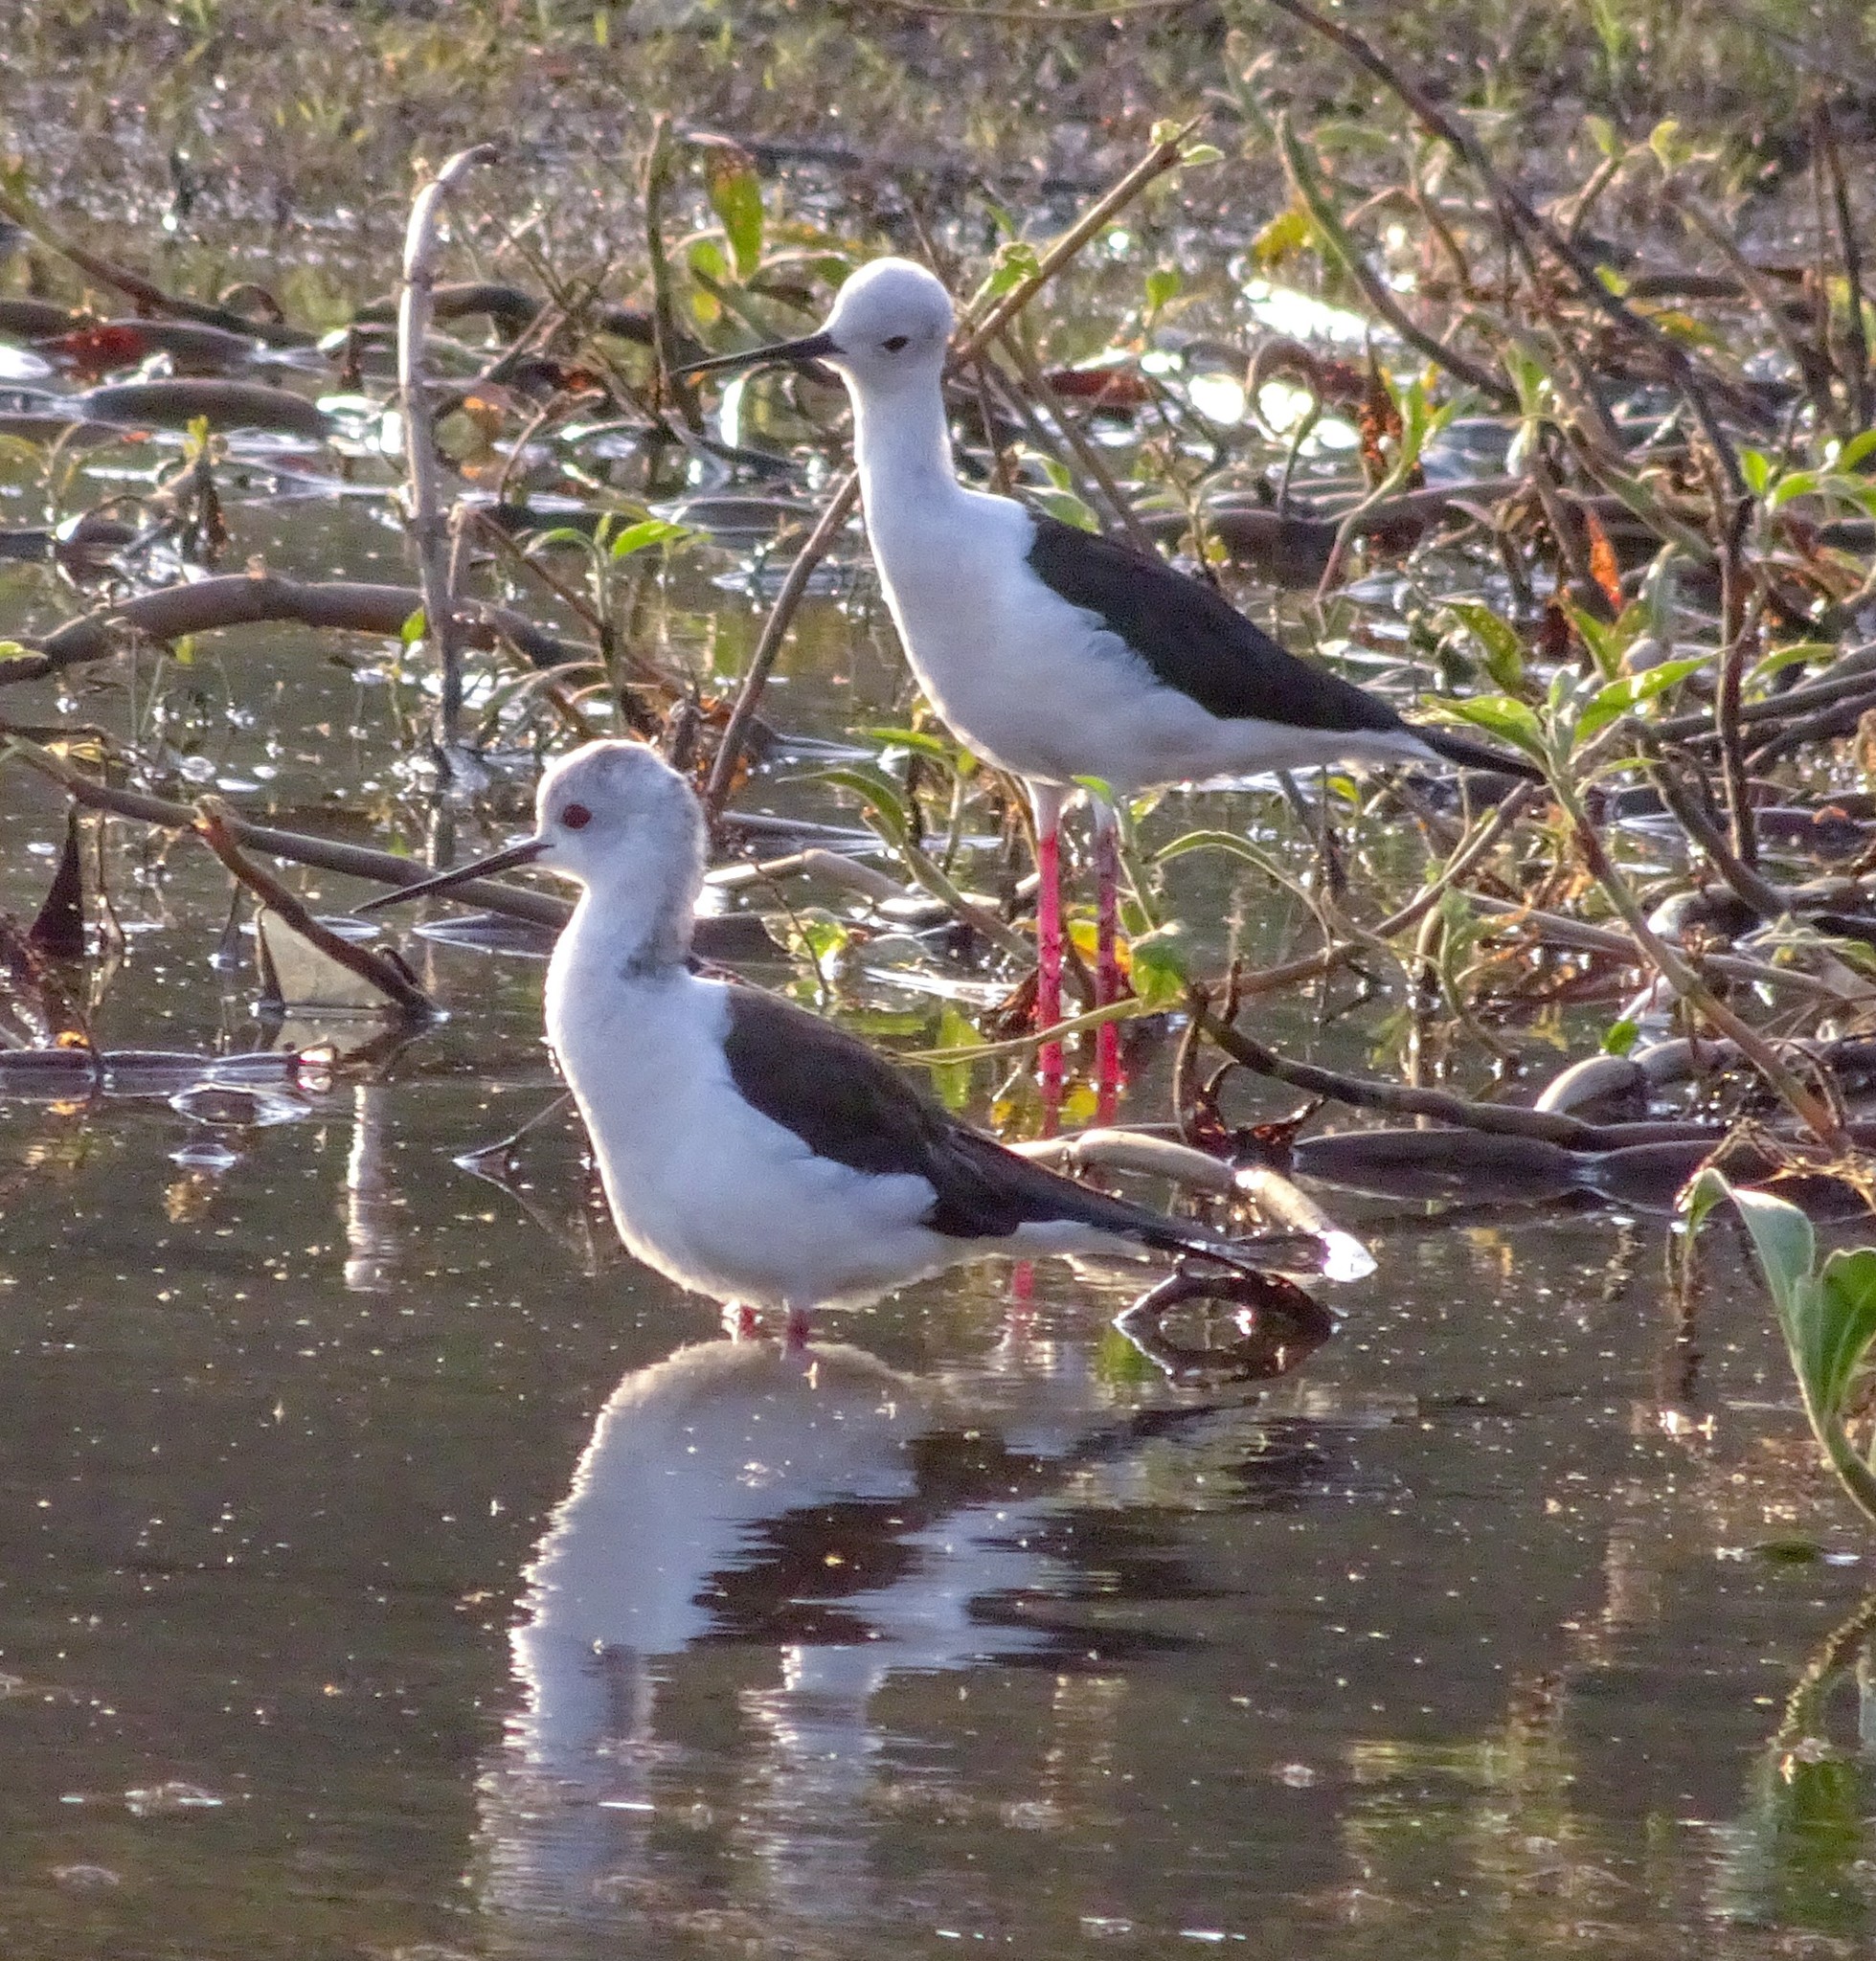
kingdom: Animalia
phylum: Chordata
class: Aves
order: Charadriiformes
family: Recurvirostridae
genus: Himantopus
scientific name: Himantopus himantopus
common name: Black-winged stilt
